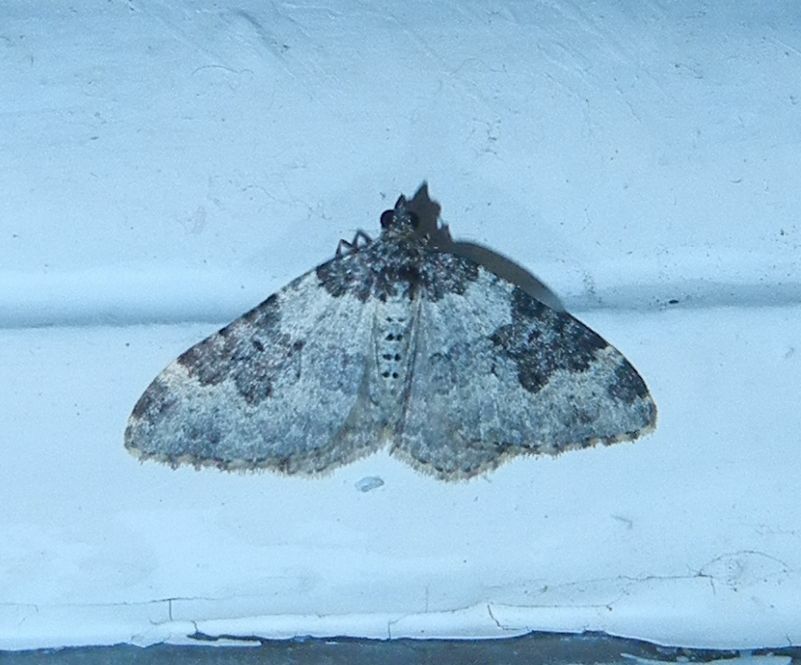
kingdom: Animalia
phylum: Arthropoda
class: Insecta
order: Lepidoptera
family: Geometridae
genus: Xanthorhoe
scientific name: Xanthorhoe fluctuata
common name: Garden carpet
